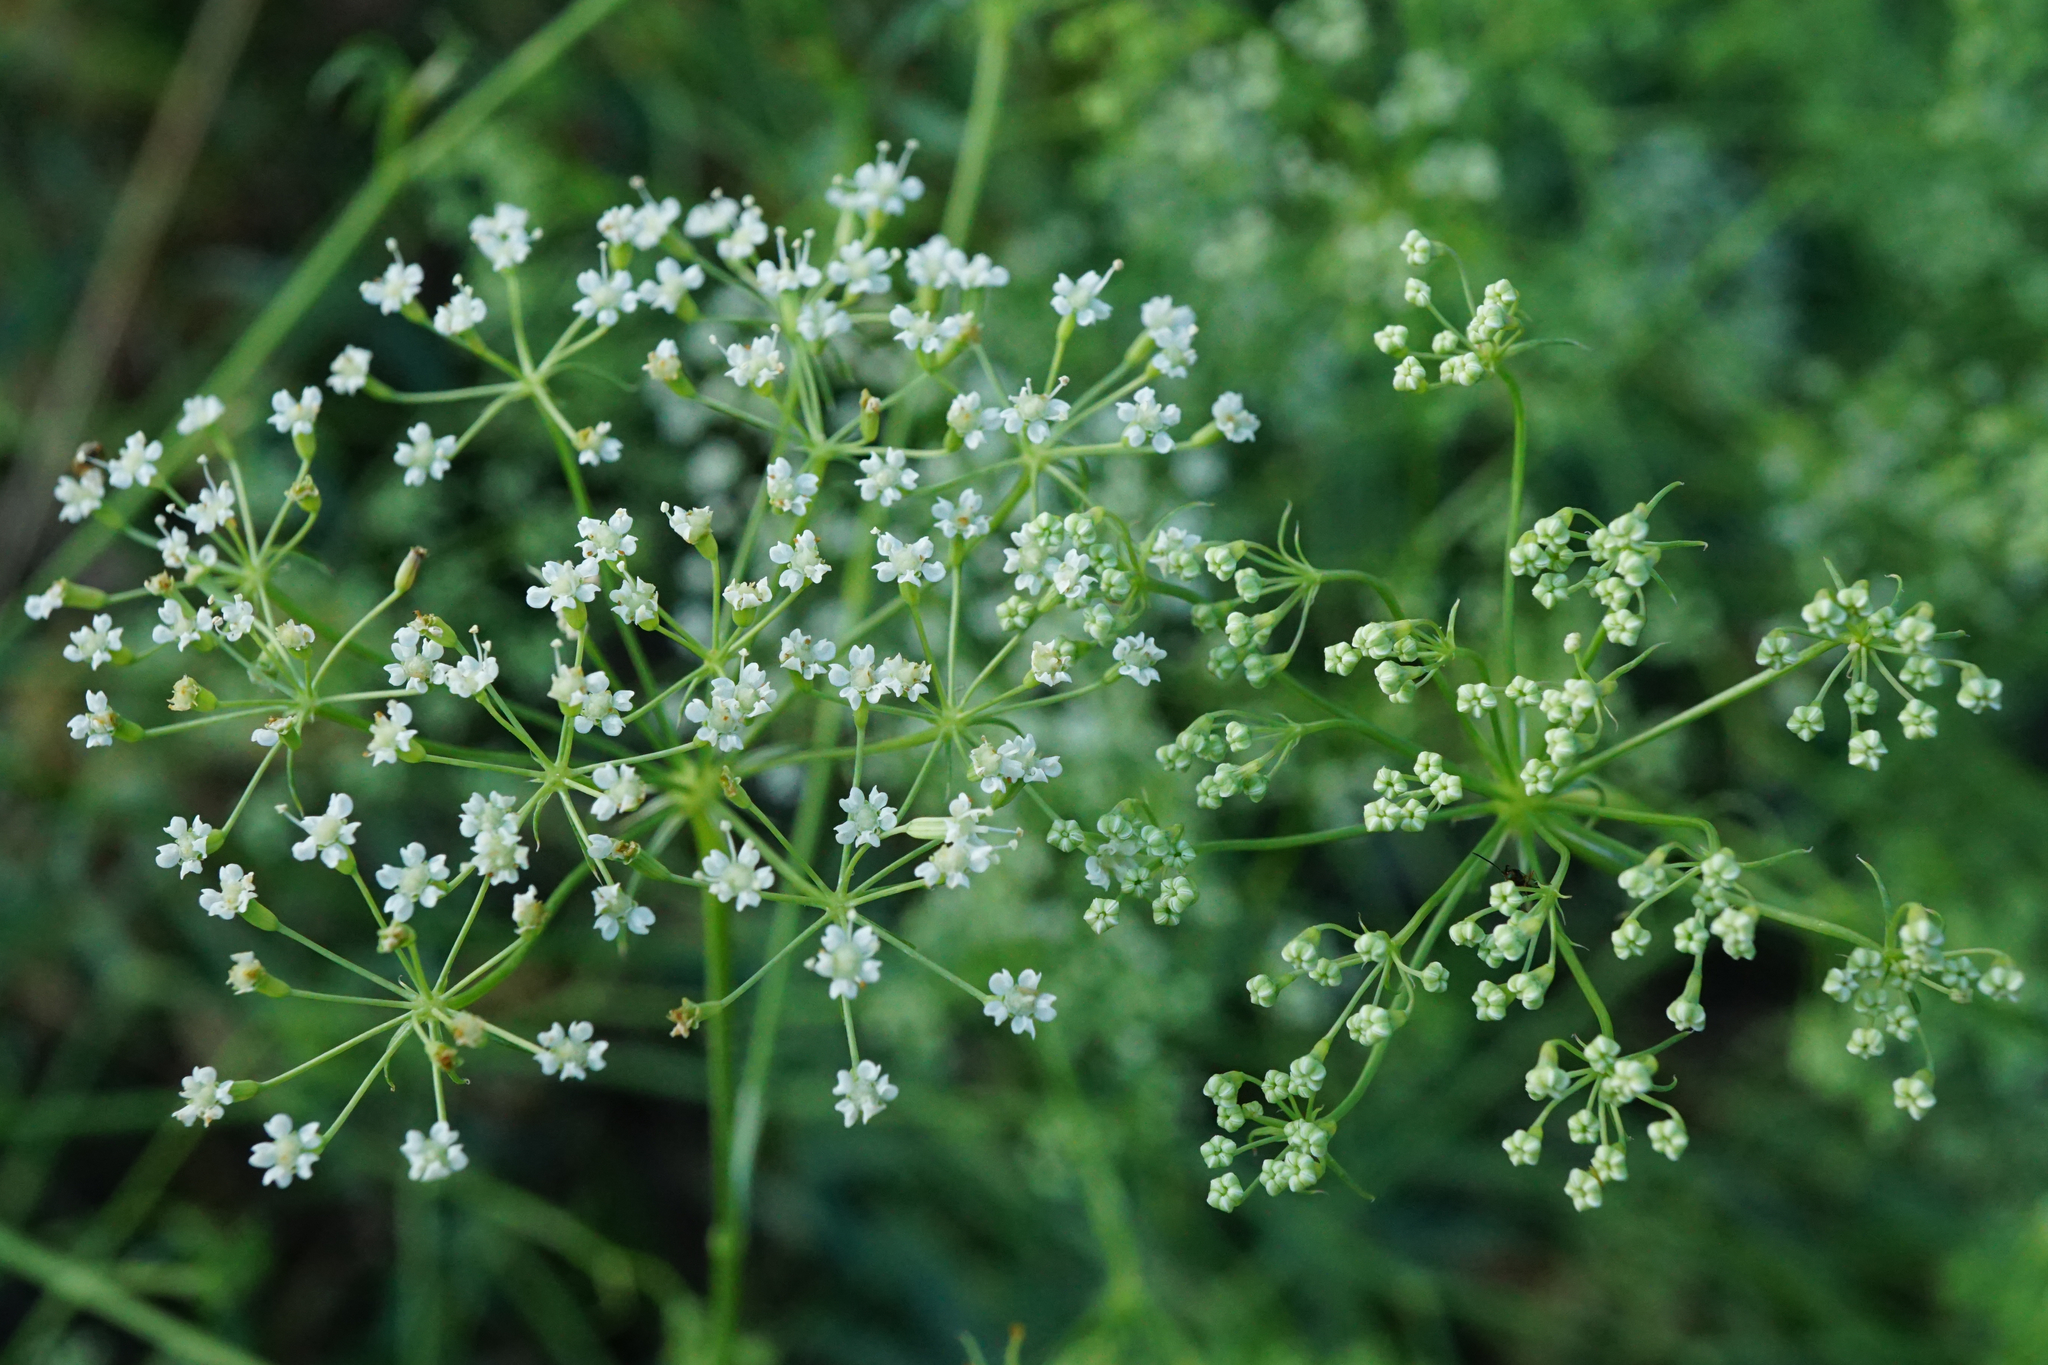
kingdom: Plantae
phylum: Tracheophyta
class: Magnoliopsida
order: Apiales
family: Apiaceae
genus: Falcaria
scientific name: Falcaria vulgaris
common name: Longleaf
